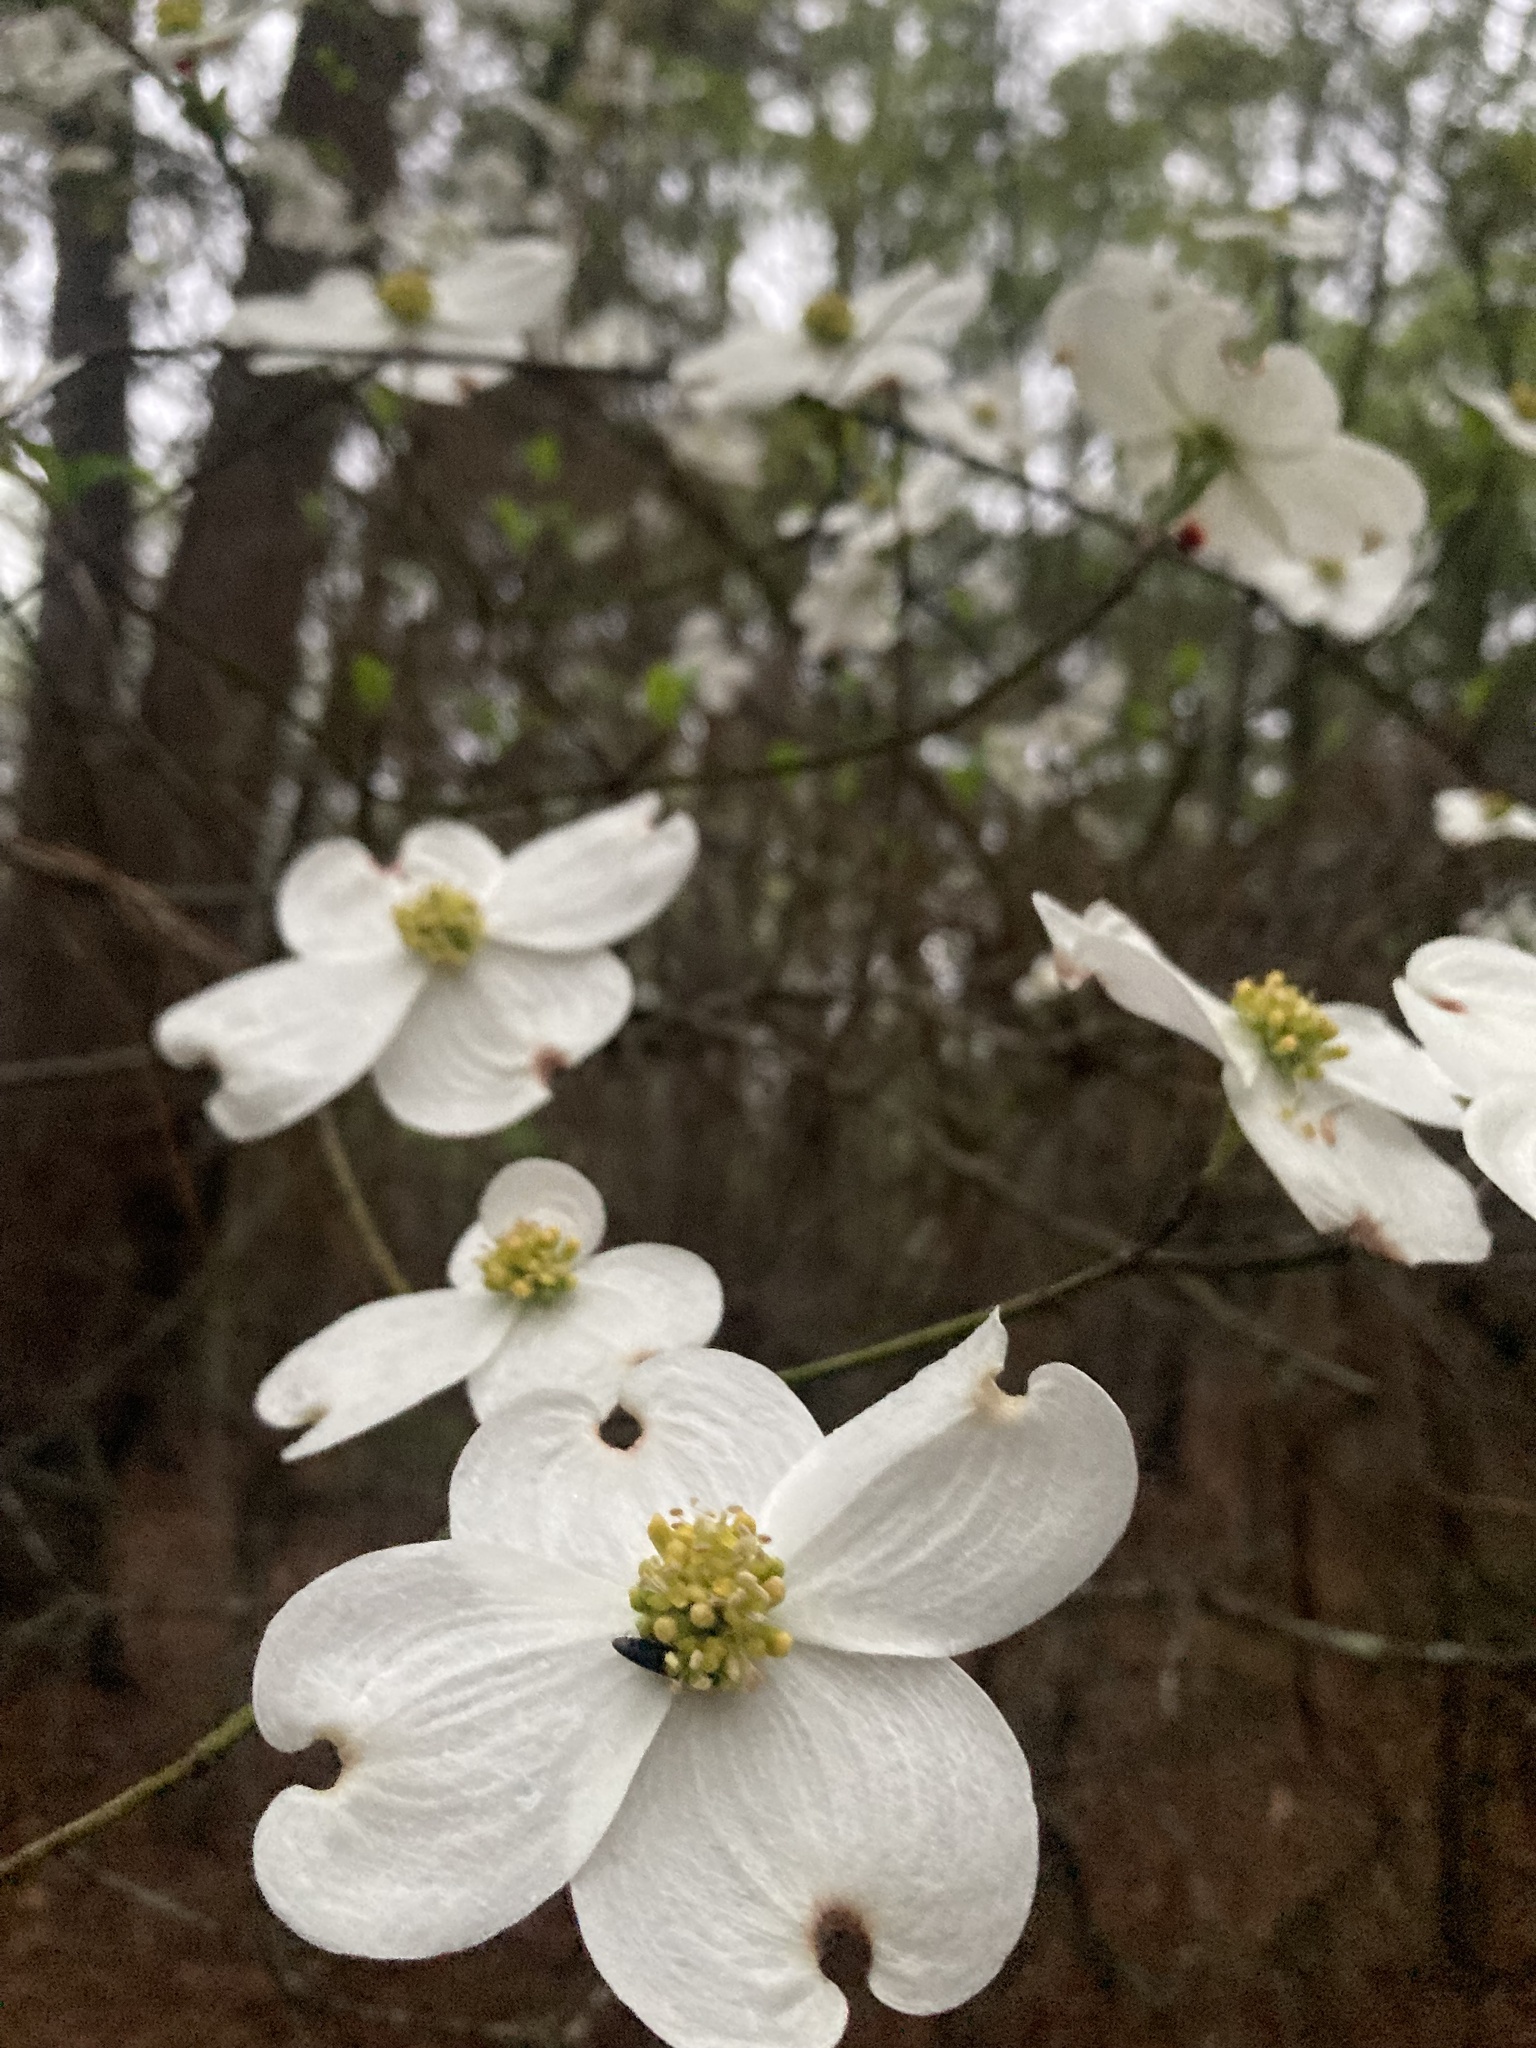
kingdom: Plantae
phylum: Tracheophyta
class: Magnoliopsida
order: Cornales
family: Cornaceae
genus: Cornus
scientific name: Cornus florida
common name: Flowering dogwood
